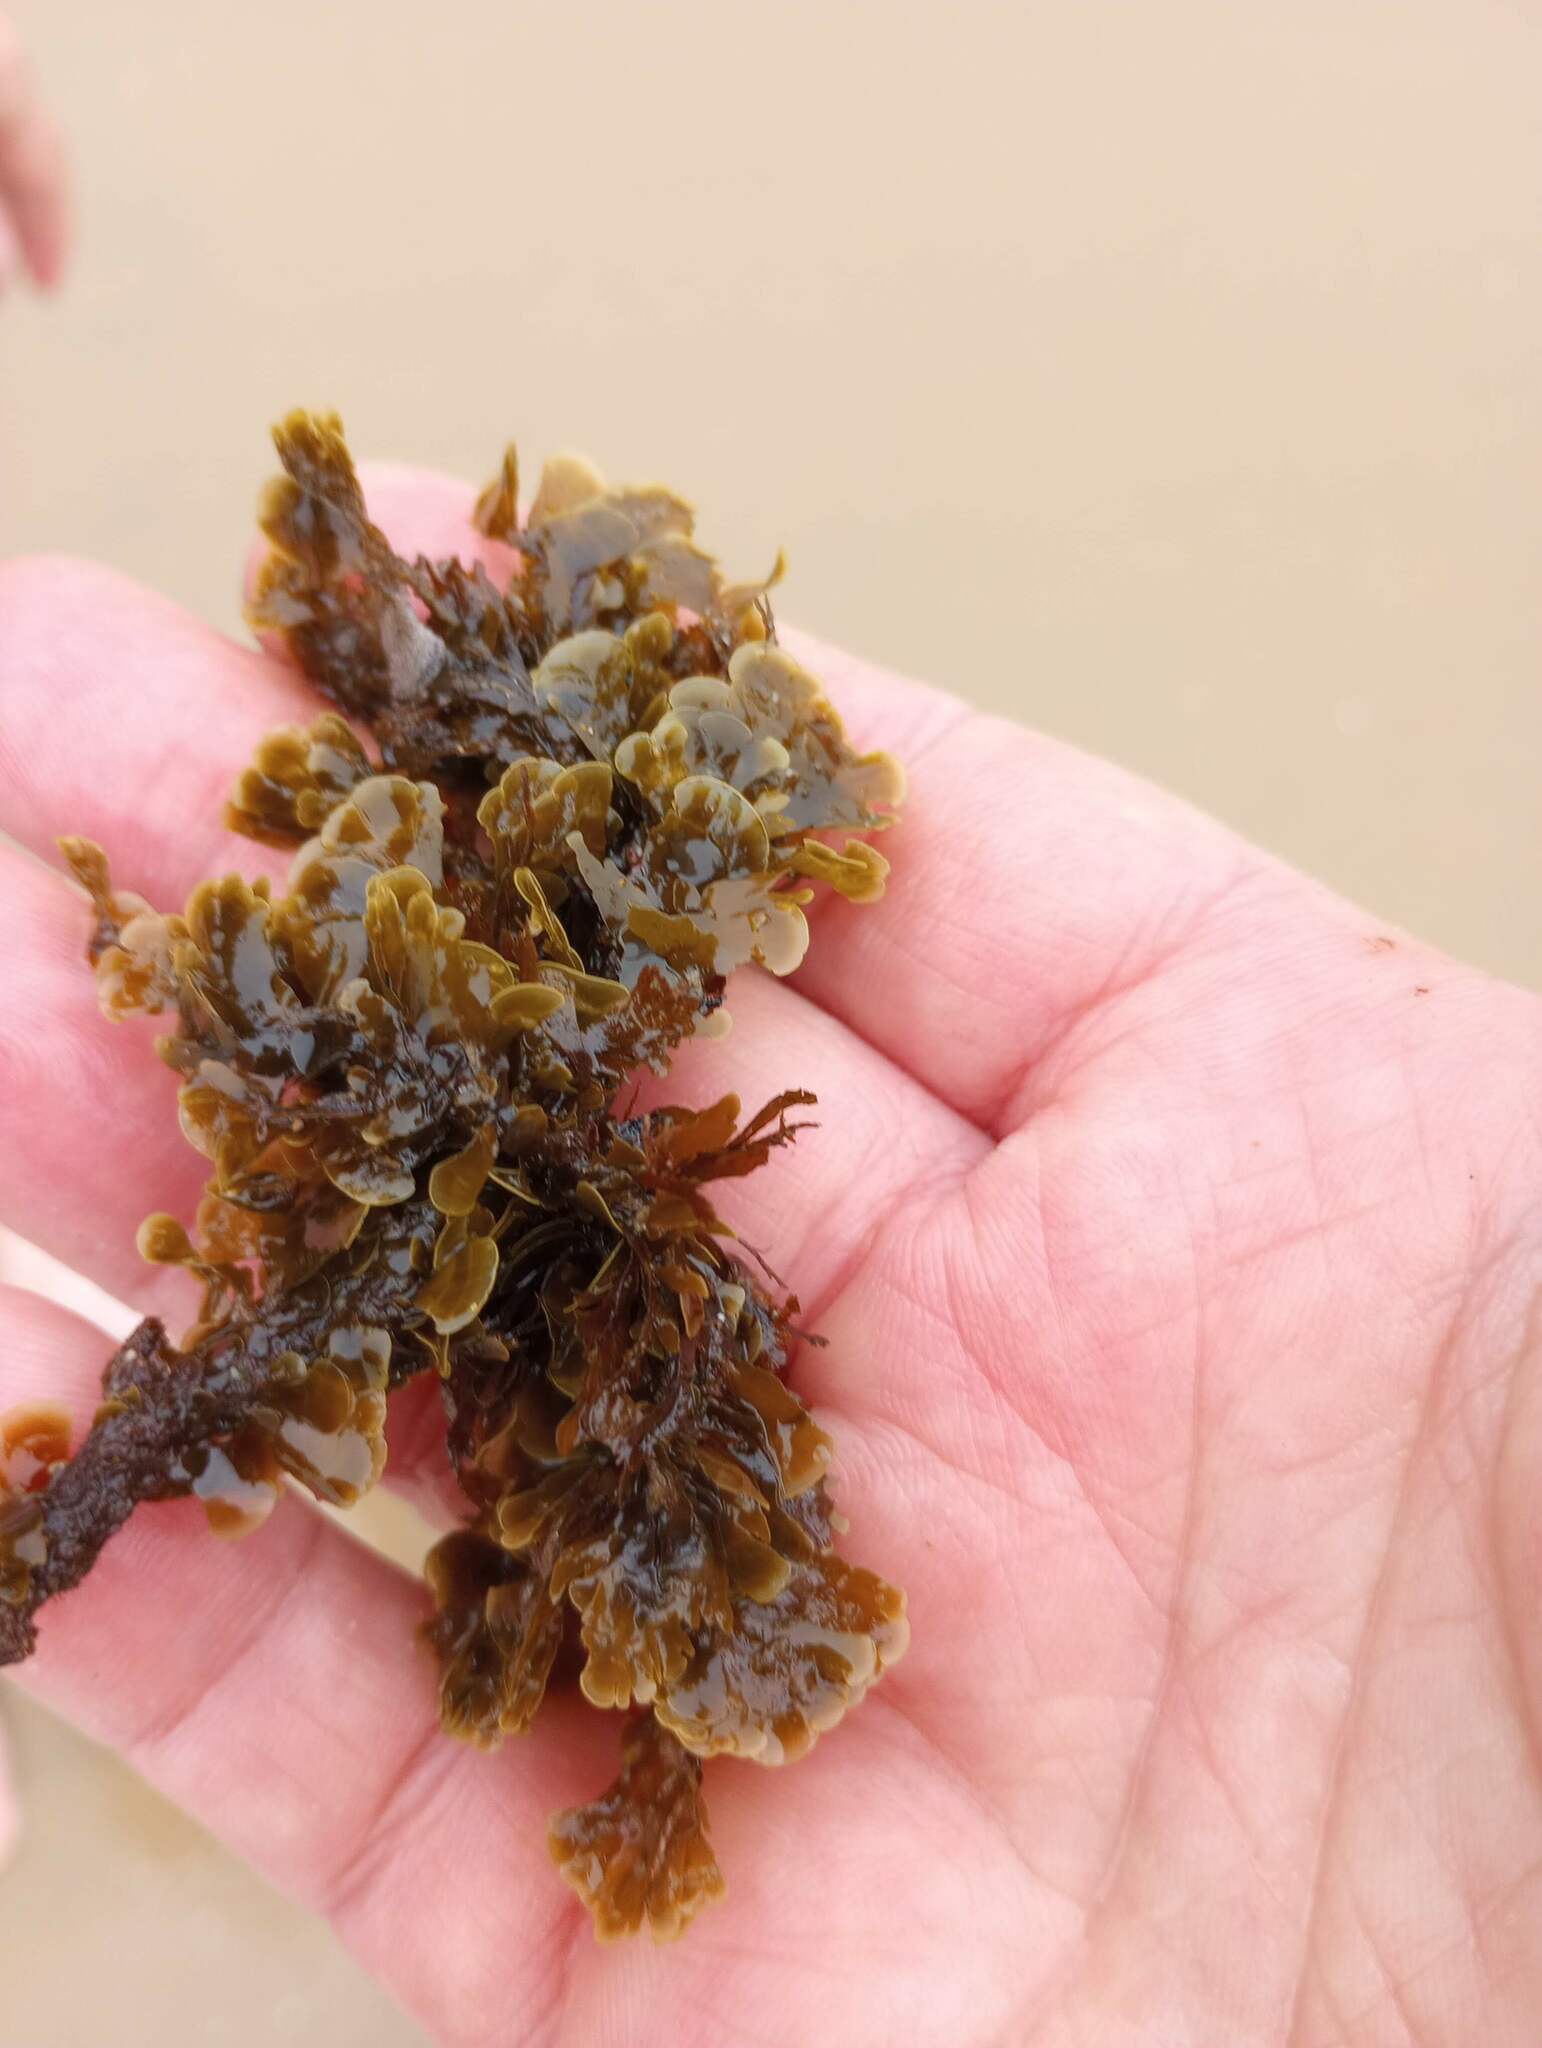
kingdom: Chromista
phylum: Ochrophyta
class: Phaeophyceae
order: Dictyotales
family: Dictyotaceae
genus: Zonaria
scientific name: Zonaria farlowii
